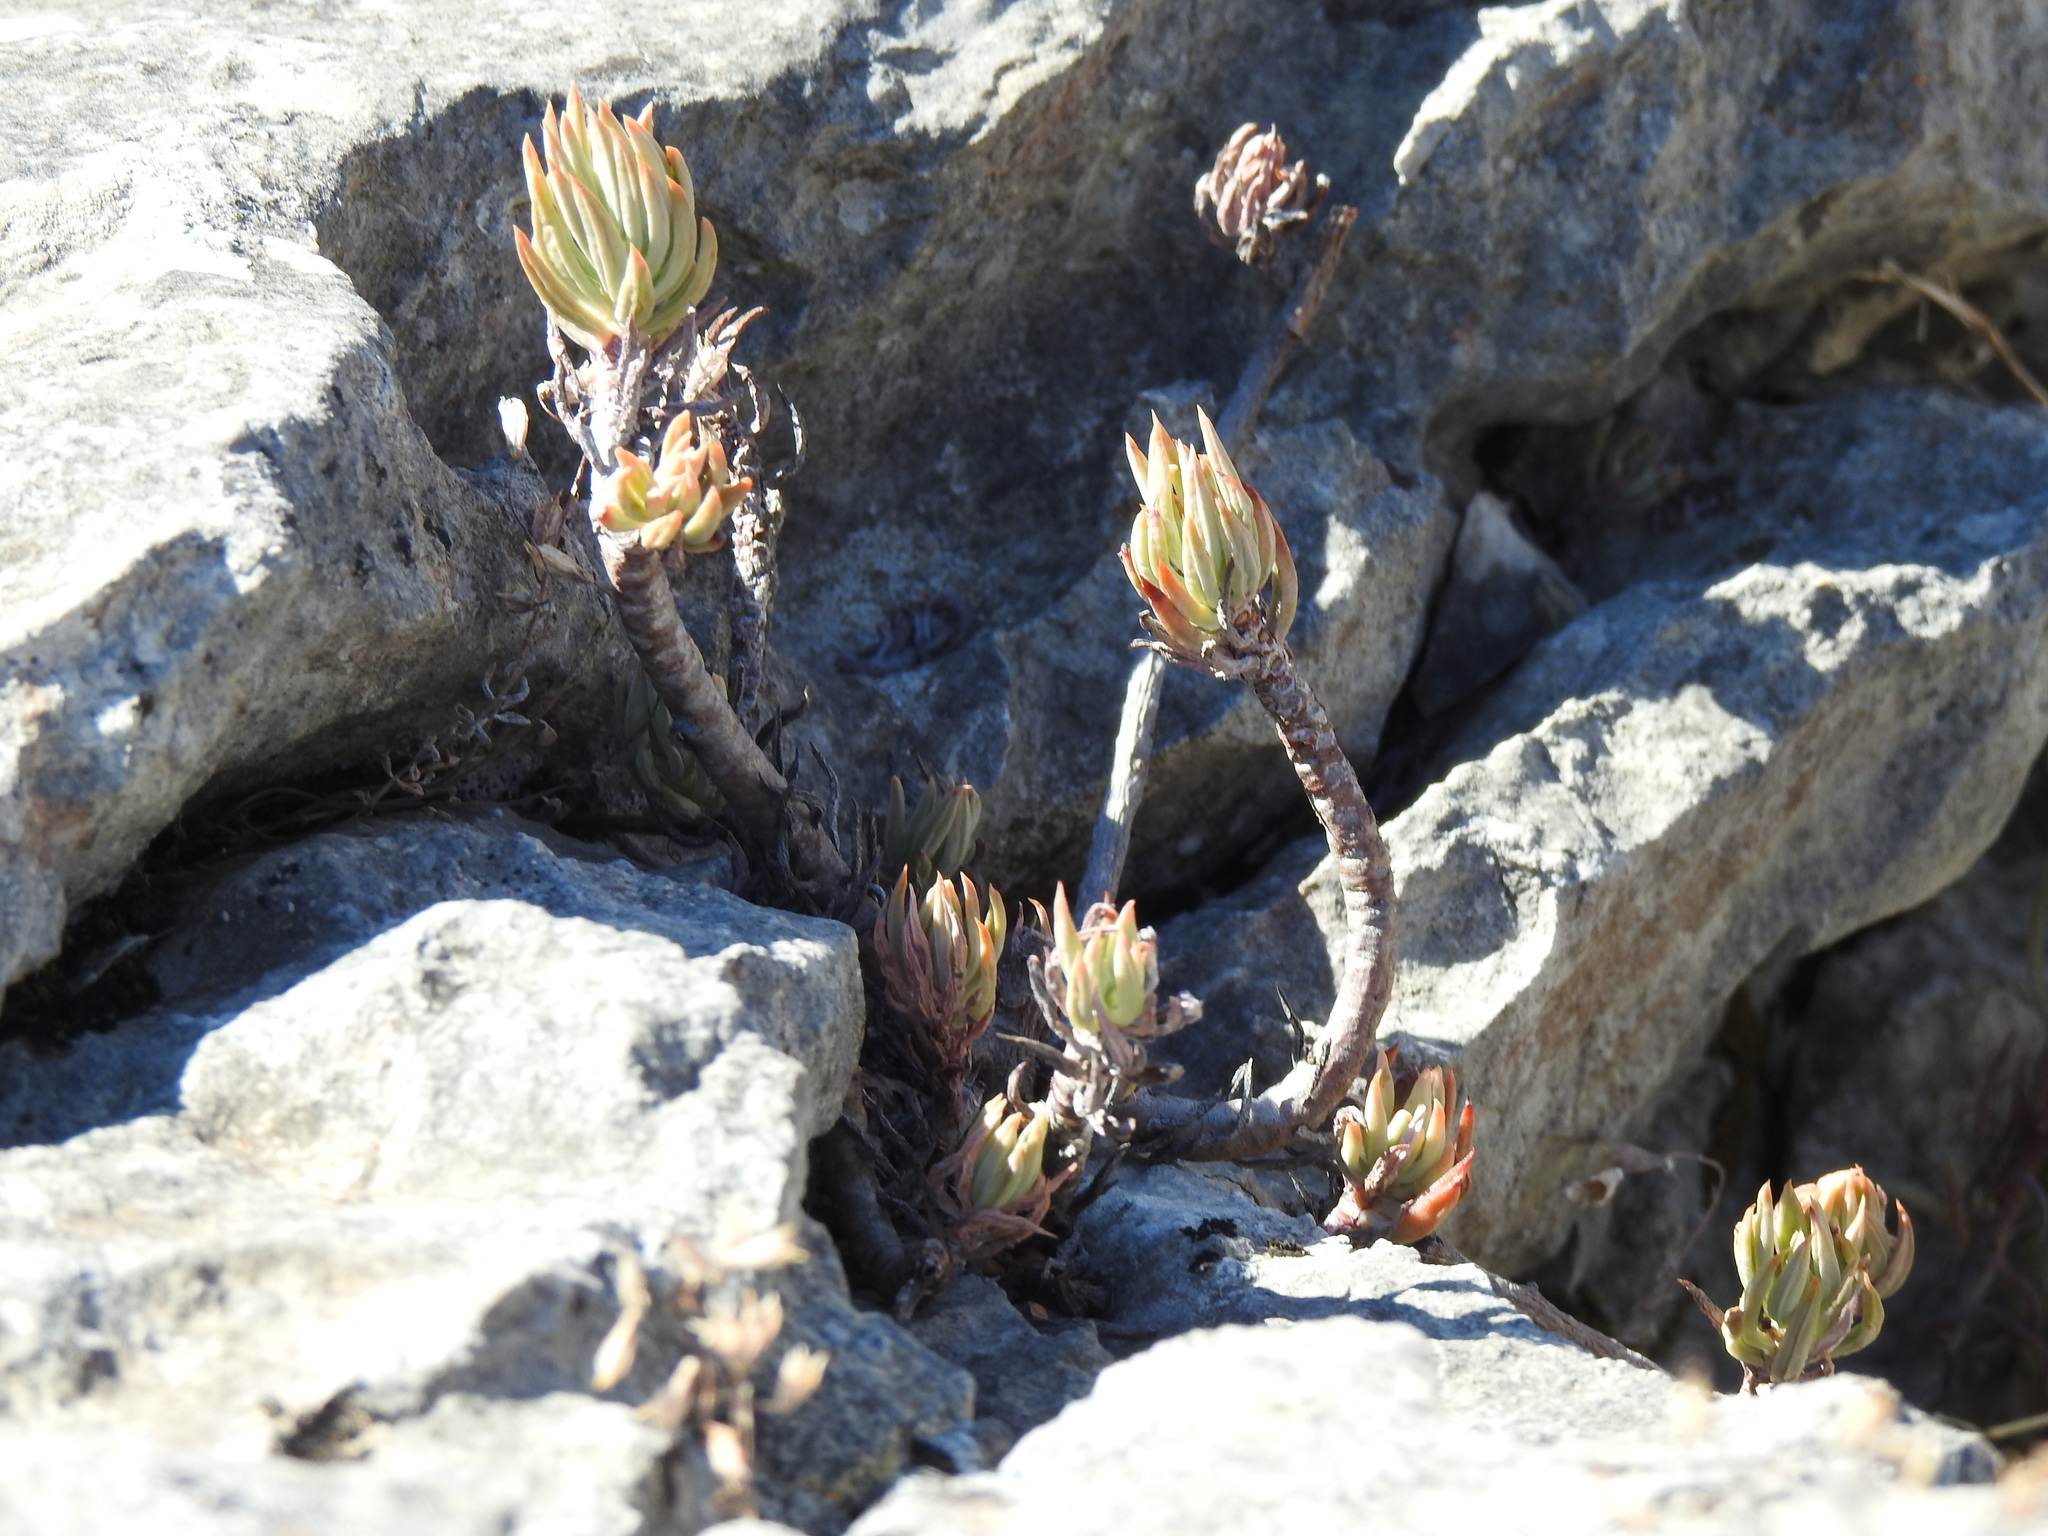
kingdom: Plantae
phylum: Tracheophyta
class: Magnoliopsida
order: Saxifragales
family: Crassulaceae
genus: Petrosedum
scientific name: Petrosedum sediforme
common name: Pale stonecrop
